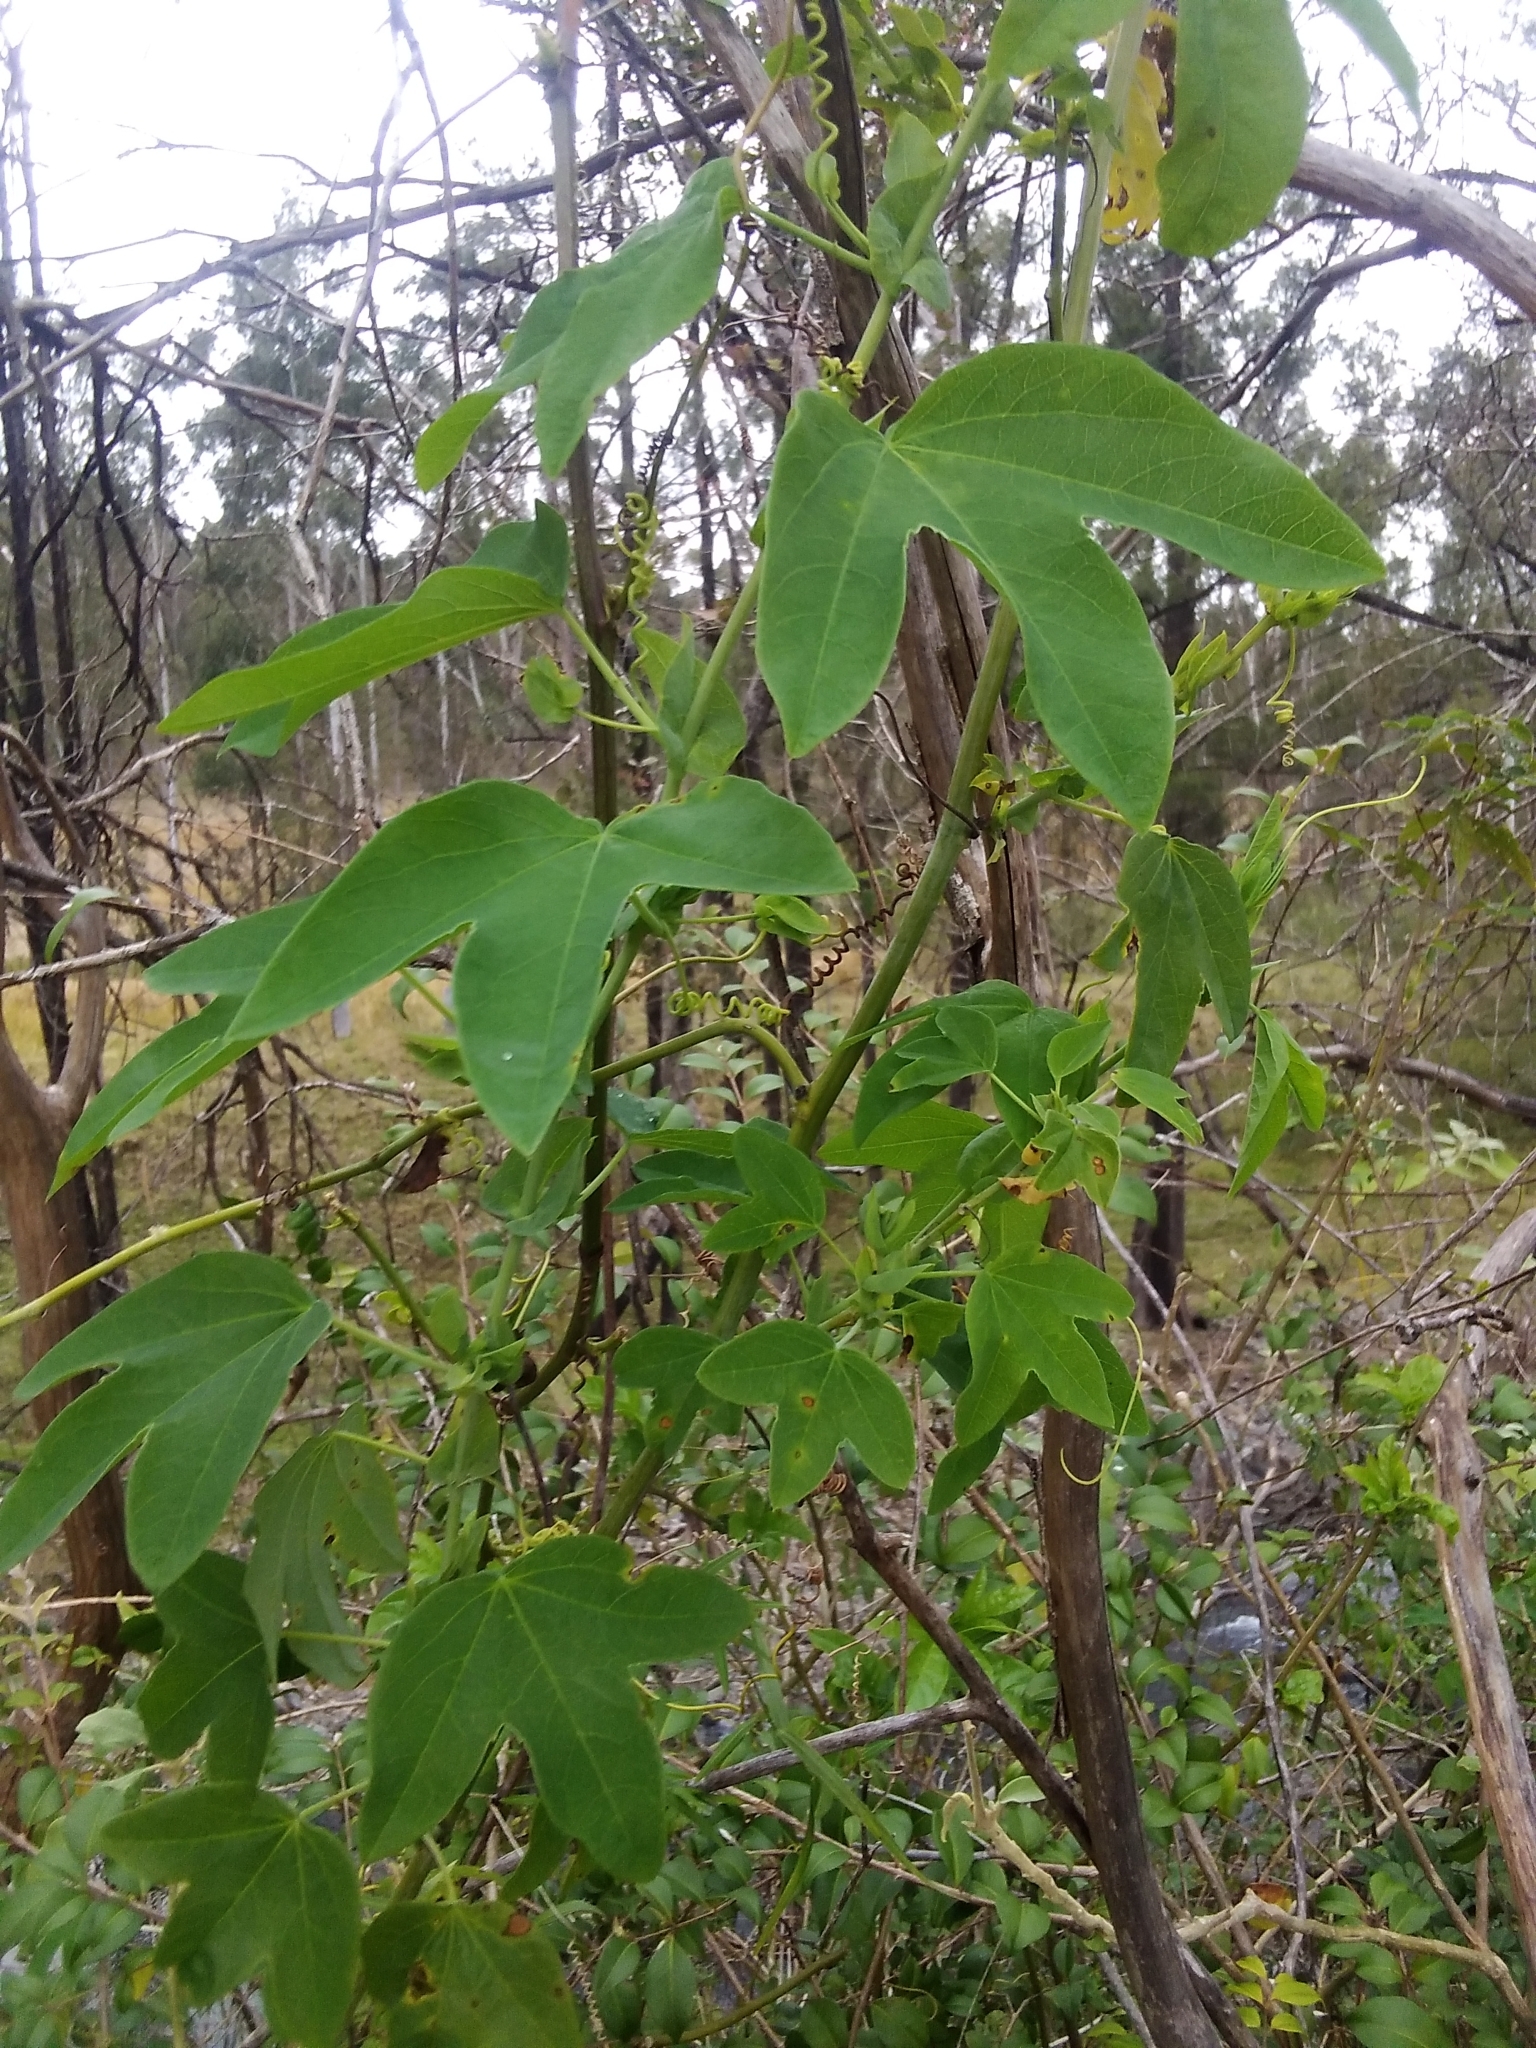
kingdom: Plantae
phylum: Tracheophyta
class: Magnoliopsida
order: Malpighiales
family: Passifloraceae
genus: Passiflora
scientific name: Passiflora subpeltata
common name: White passionflower
